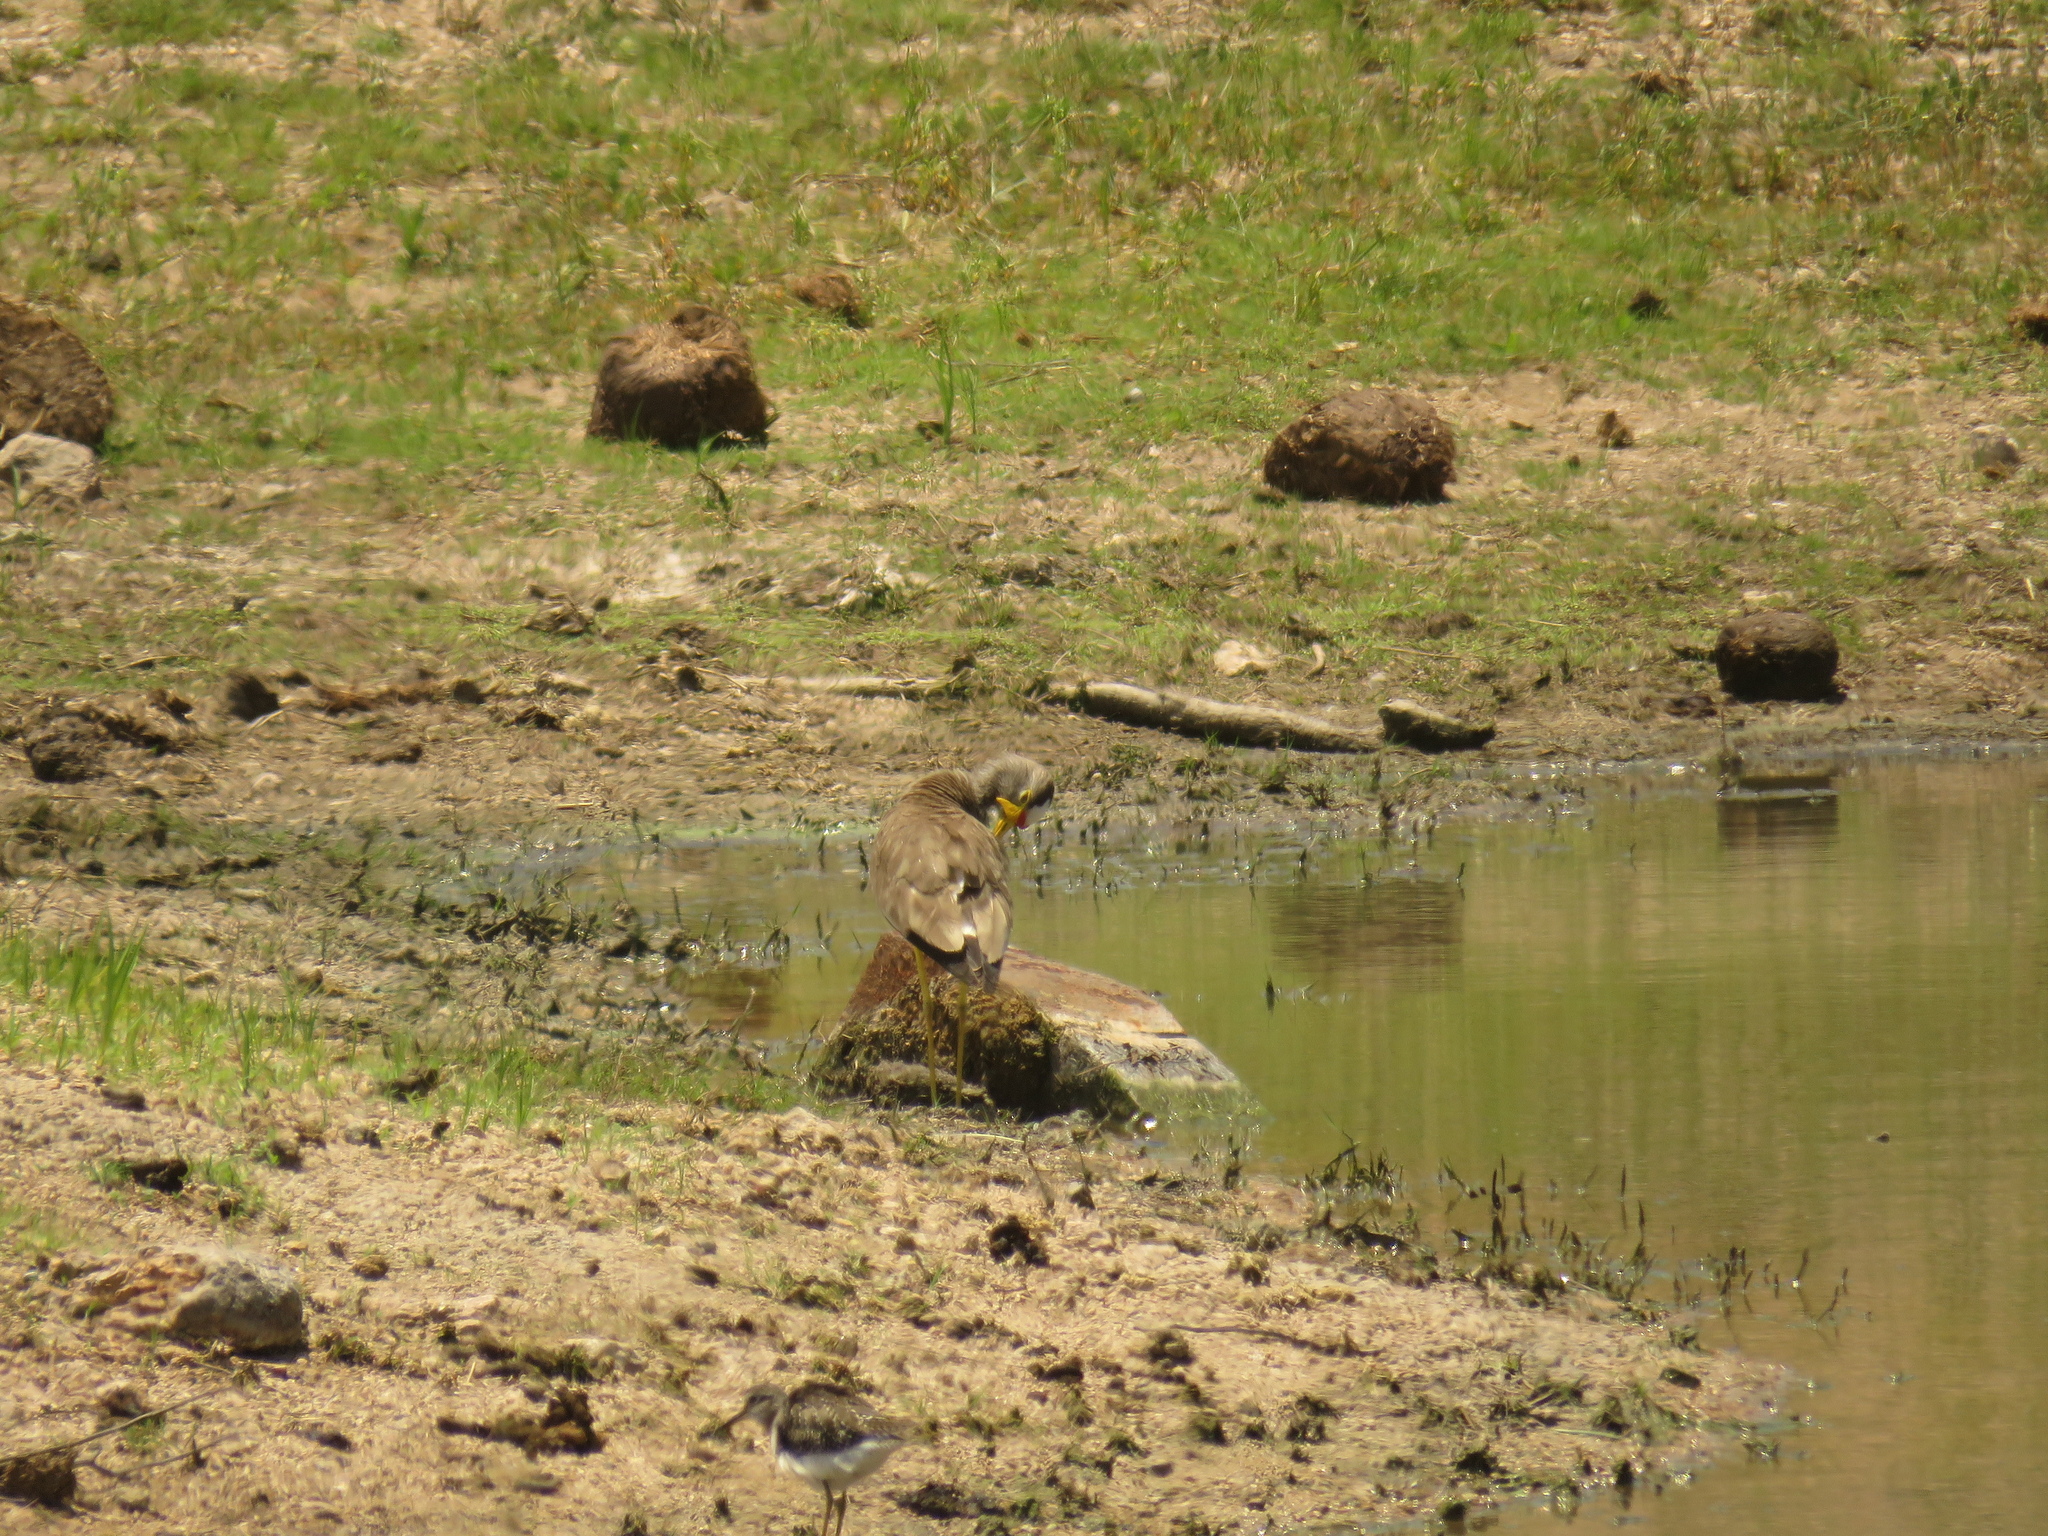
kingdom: Animalia
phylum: Chordata
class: Aves
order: Charadriiformes
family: Charadriidae
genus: Vanellus
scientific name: Vanellus senegallus
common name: African wattled lapwing
